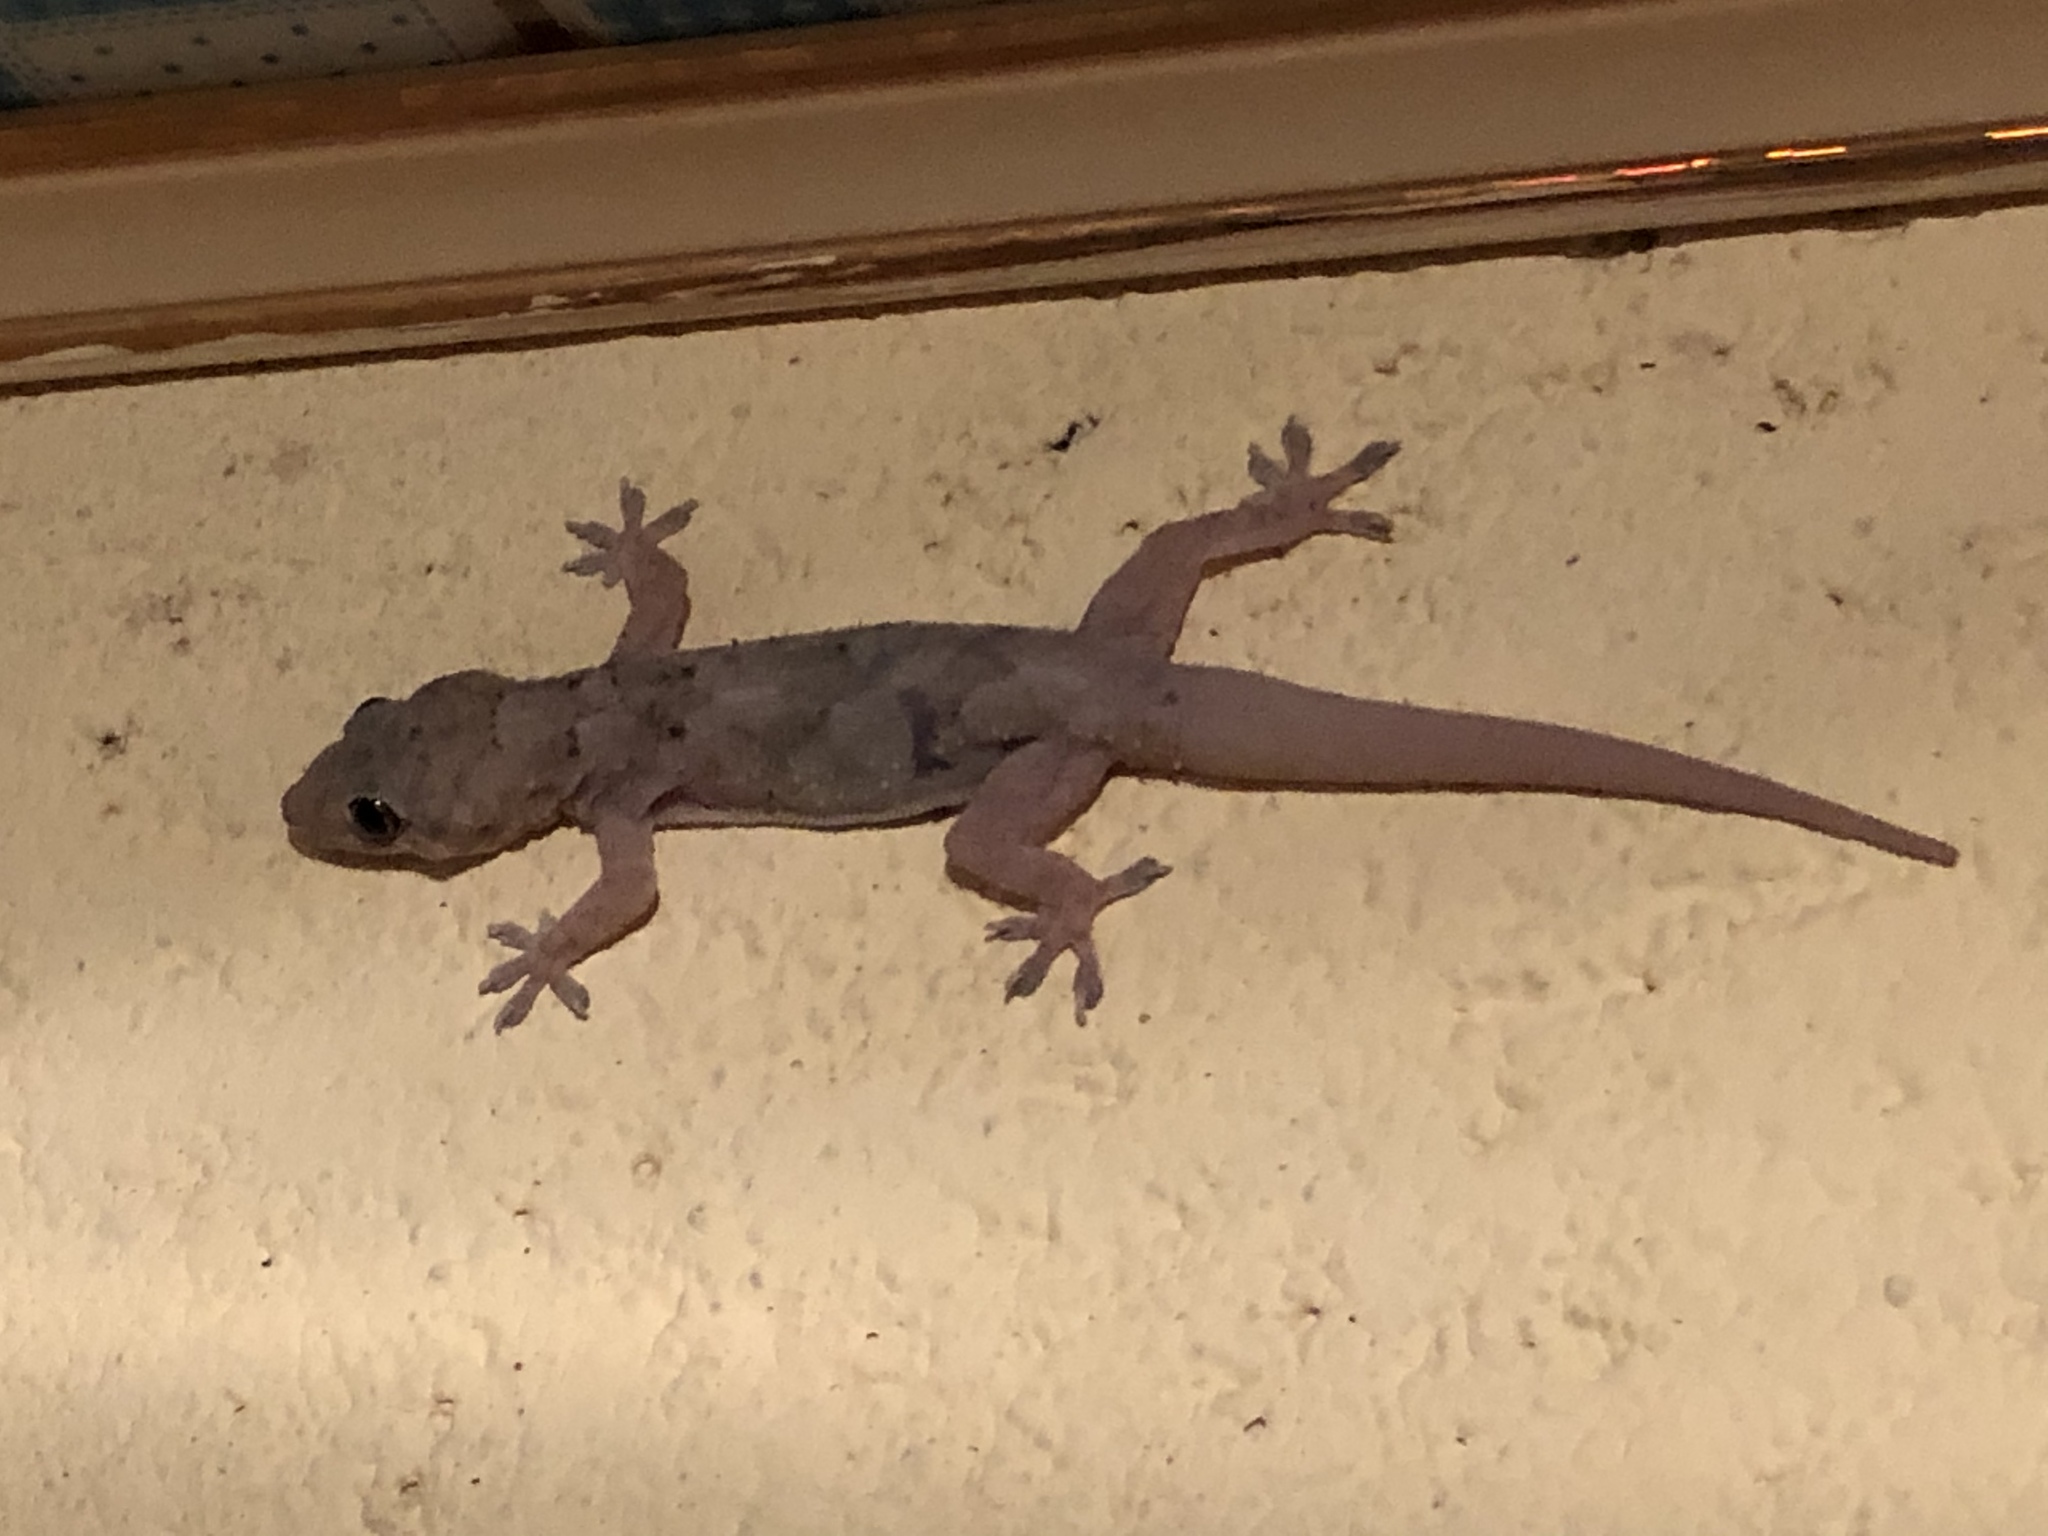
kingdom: Animalia
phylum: Chordata
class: Squamata
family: Gekkonidae
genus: Hemidactylus
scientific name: Hemidactylus mabouia
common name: House gecko
